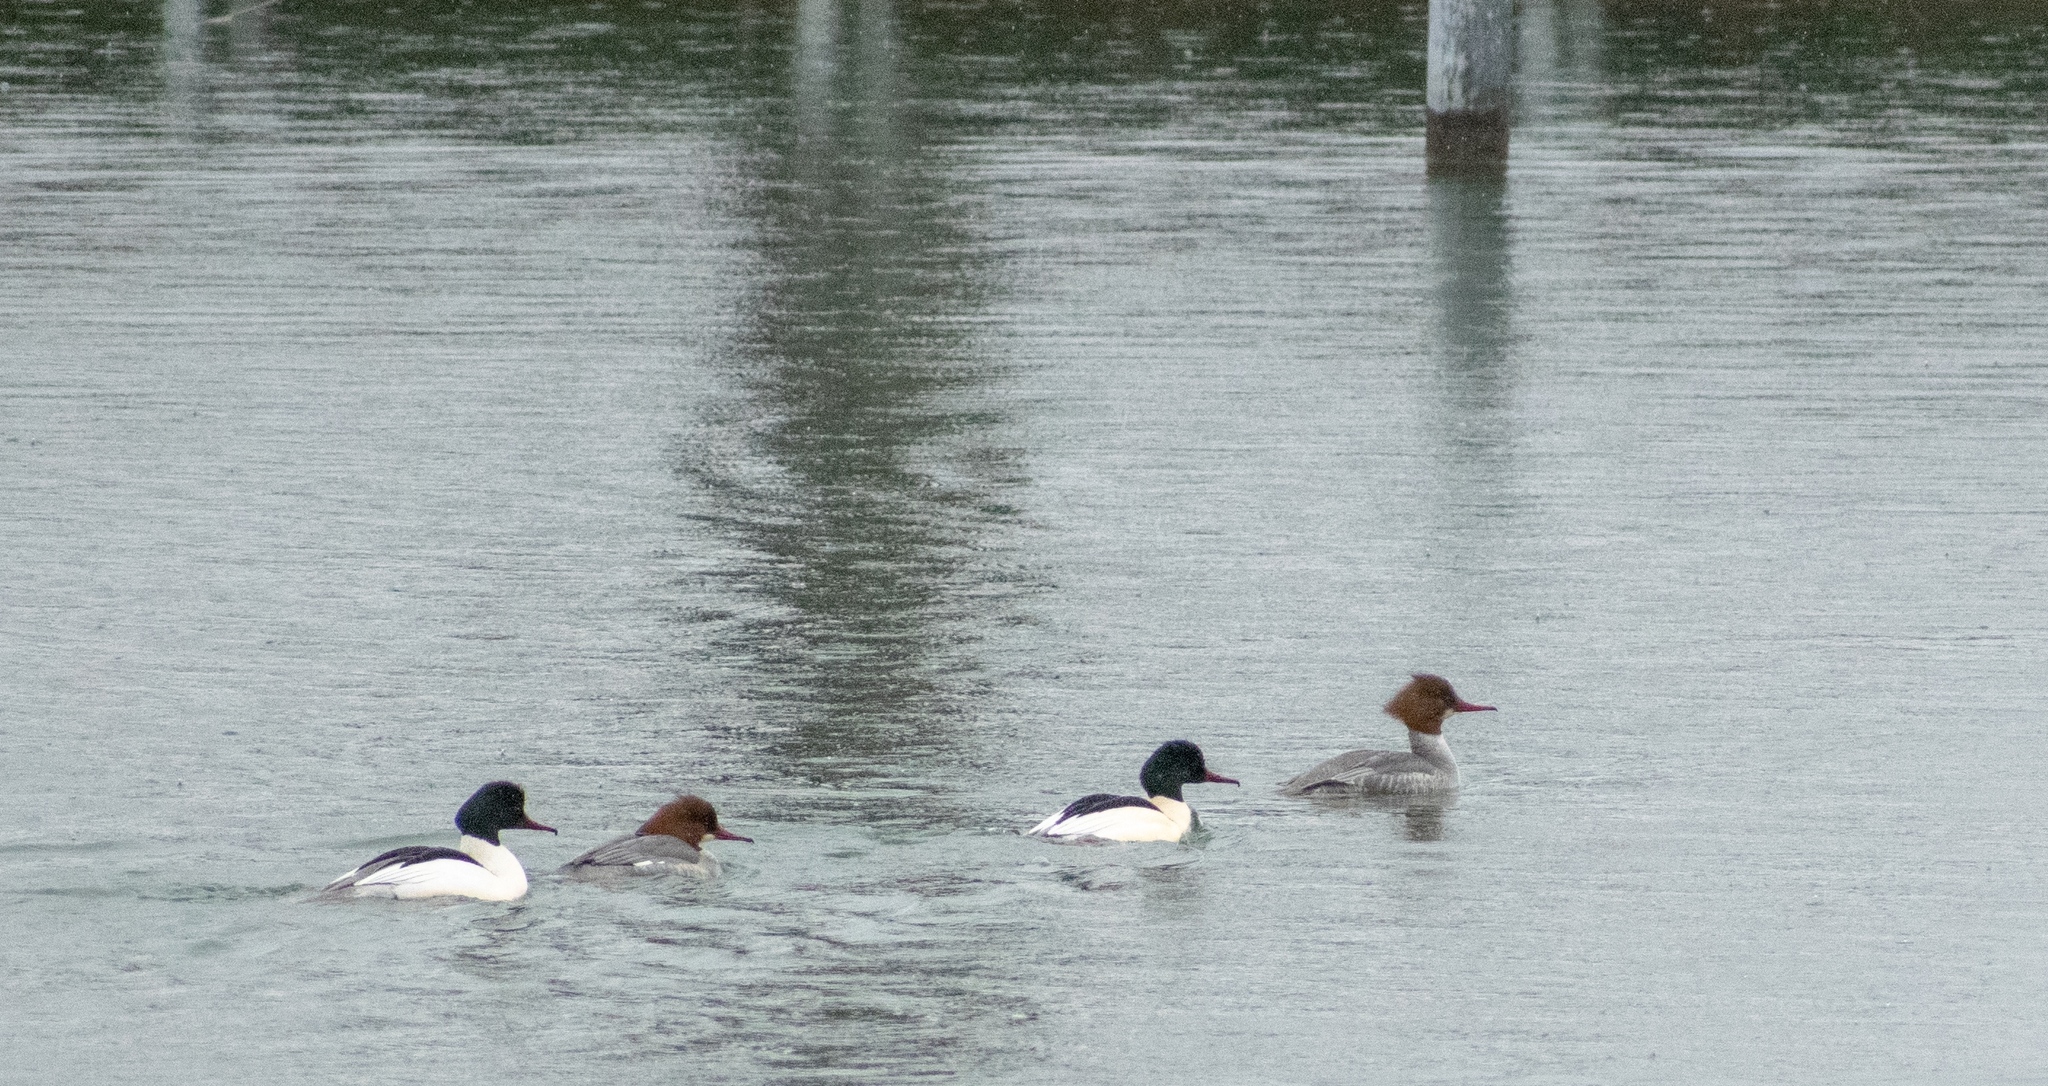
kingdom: Animalia
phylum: Chordata
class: Aves
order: Anseriformes
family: Anatidae
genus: Mergus
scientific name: Mergus merganser
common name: Common merganser
